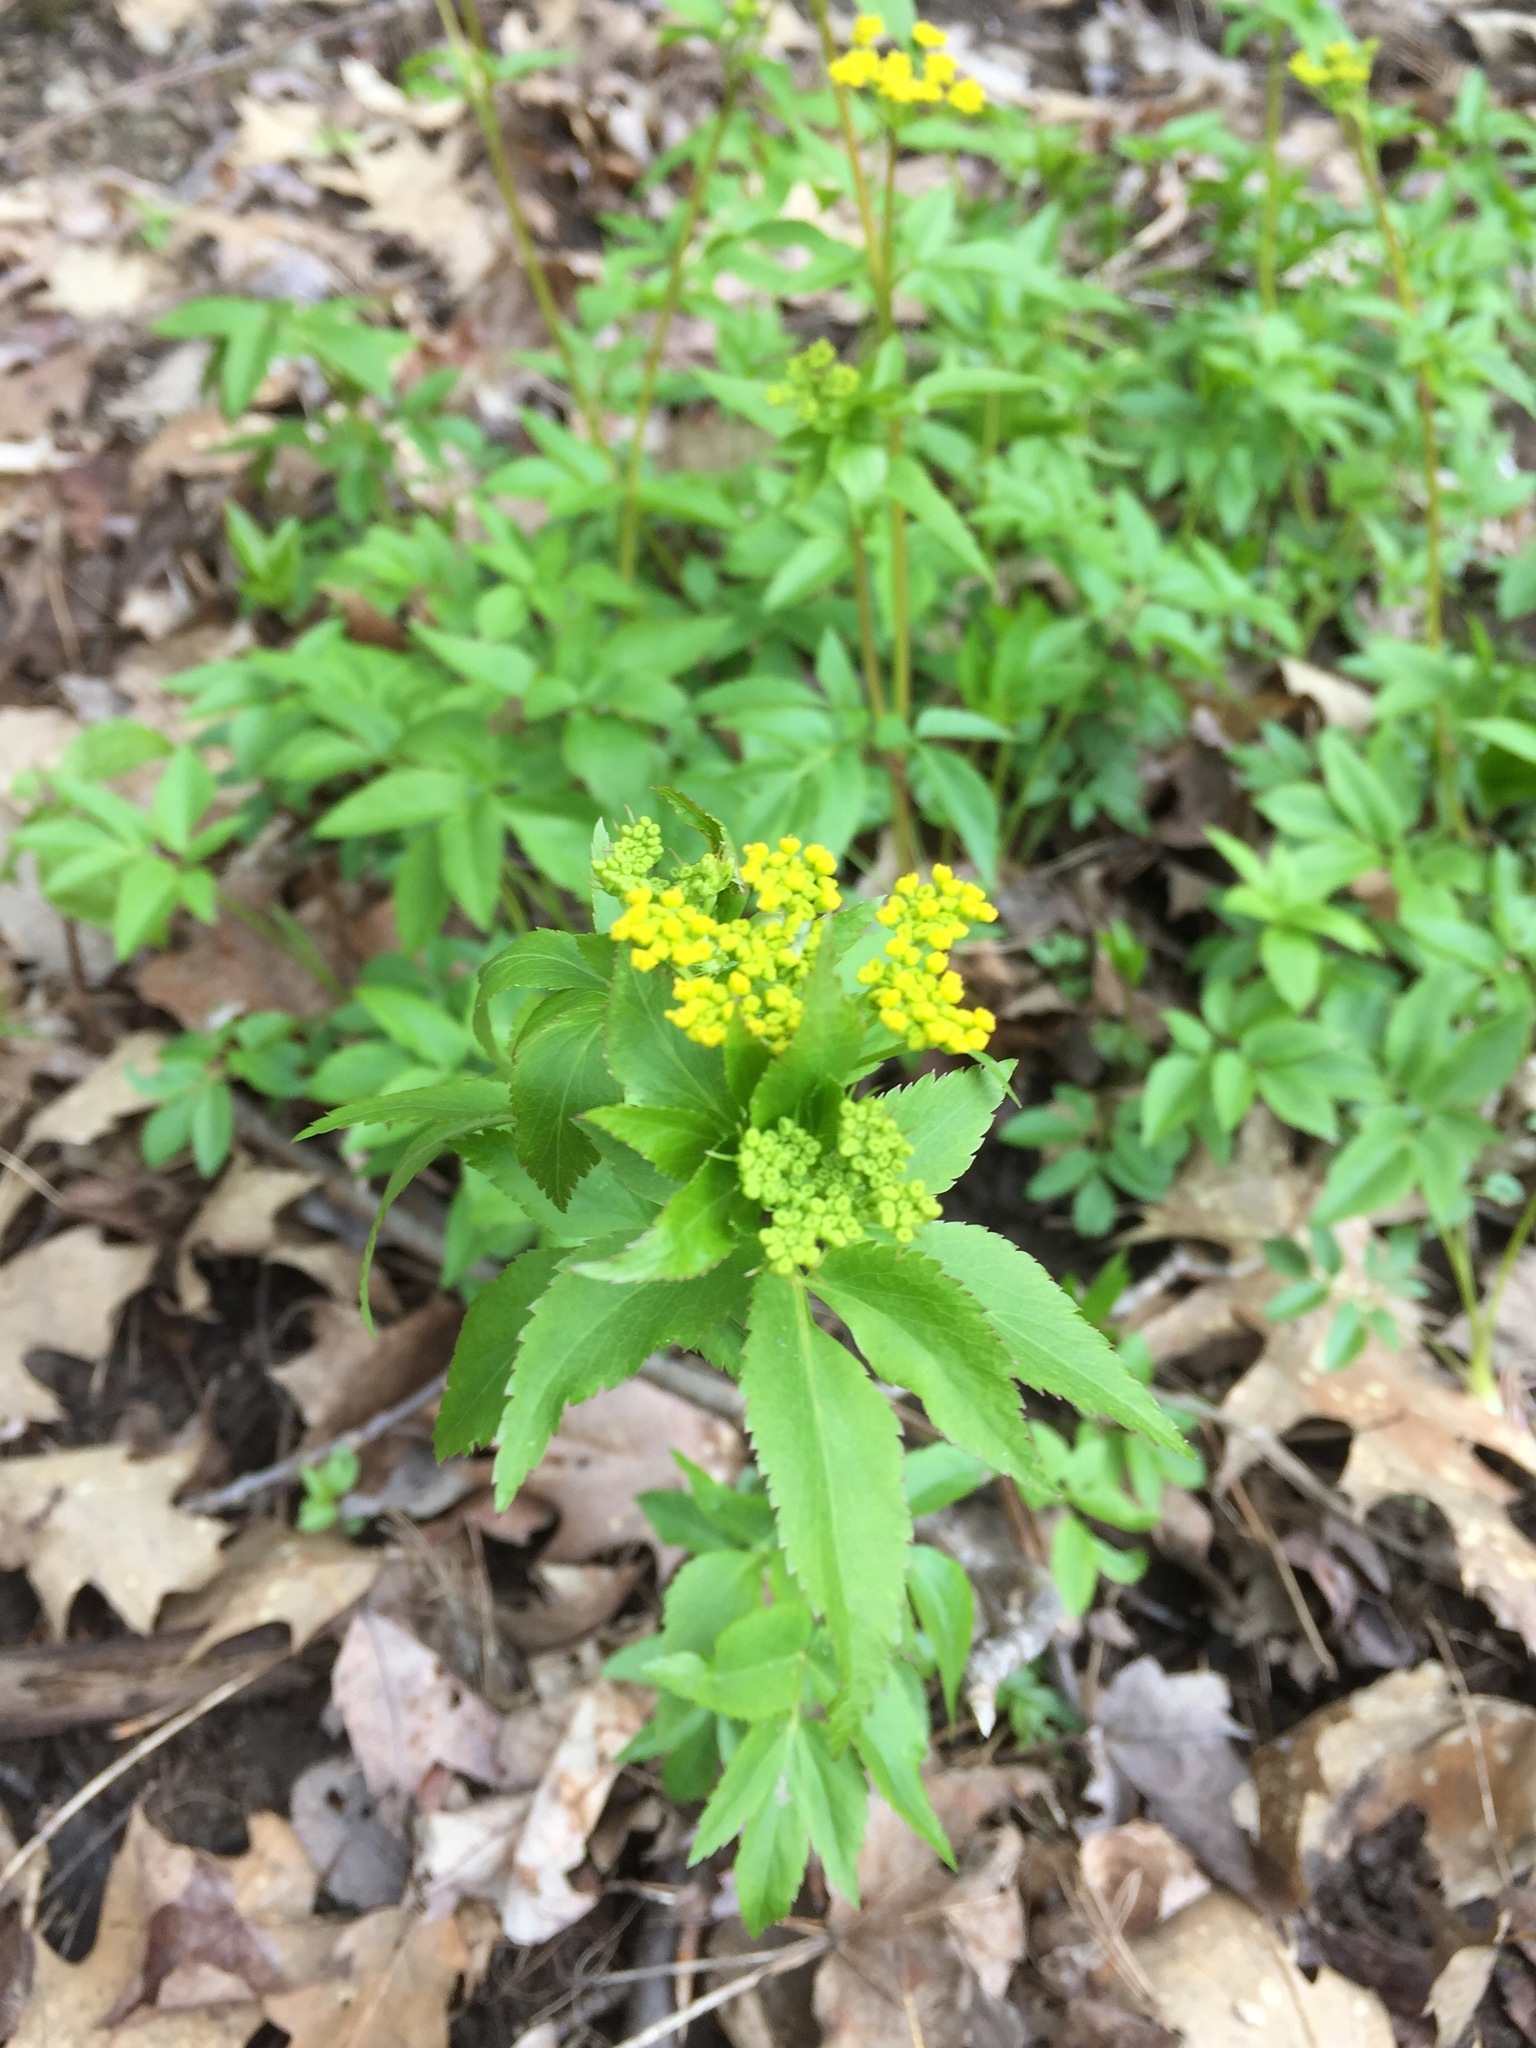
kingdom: Plantae
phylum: Tracheophyta
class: Magnoliopsida
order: Apiales
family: Apiaceae
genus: Zizia
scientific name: Zizia aurea
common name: Golden alexanders
